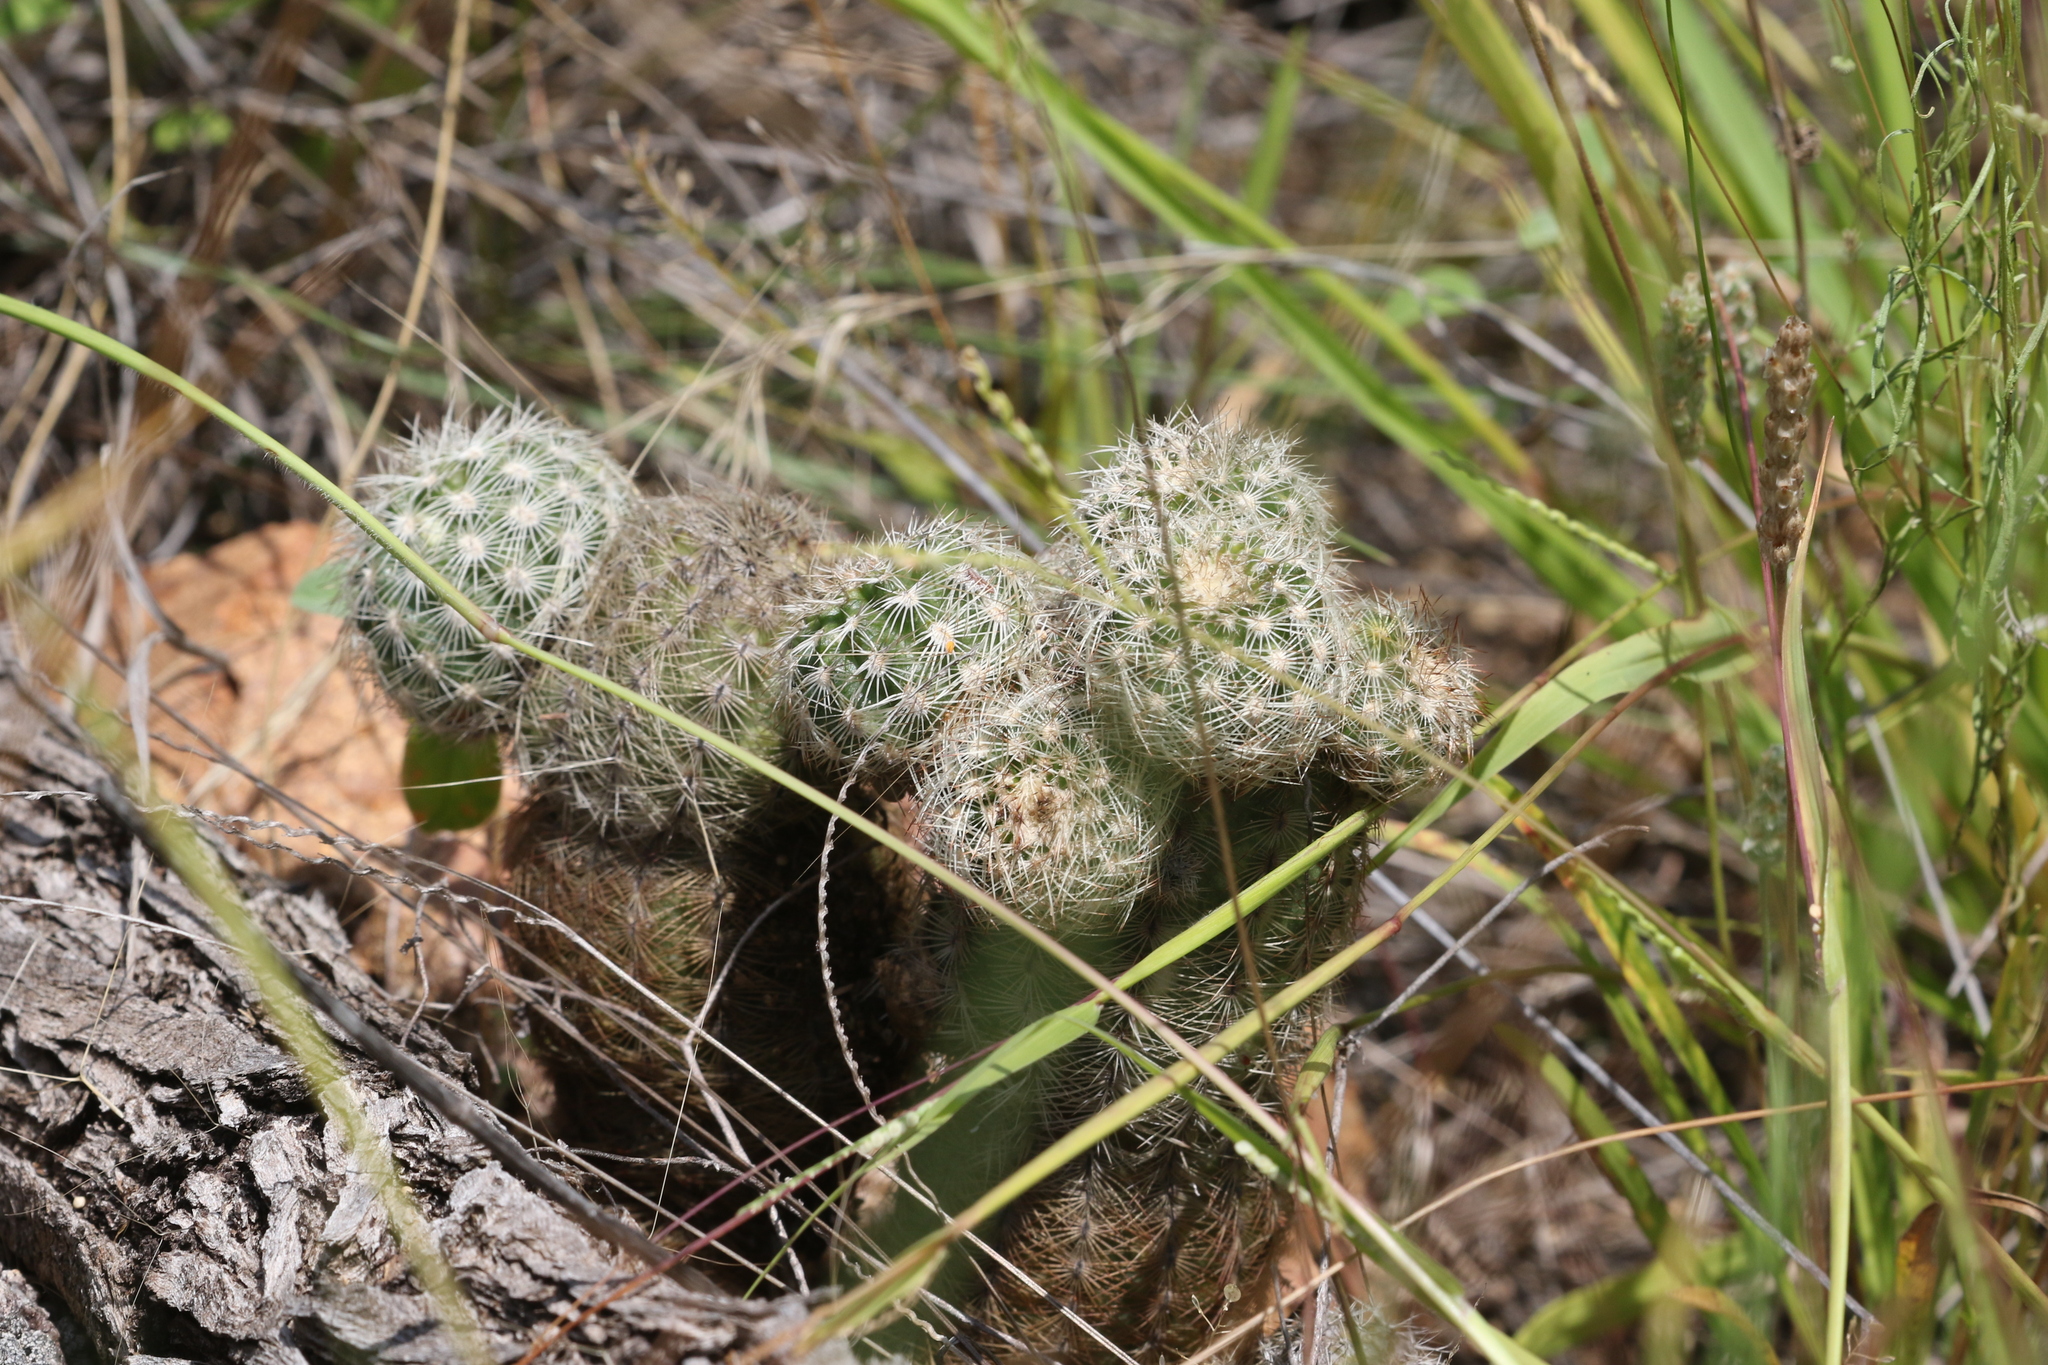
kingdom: Plantae
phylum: Tracheophyta
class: Magnoliopsida
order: Caryophyllales
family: Cactaceae
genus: Echinocereus
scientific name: Echinocereus reichenbachii
